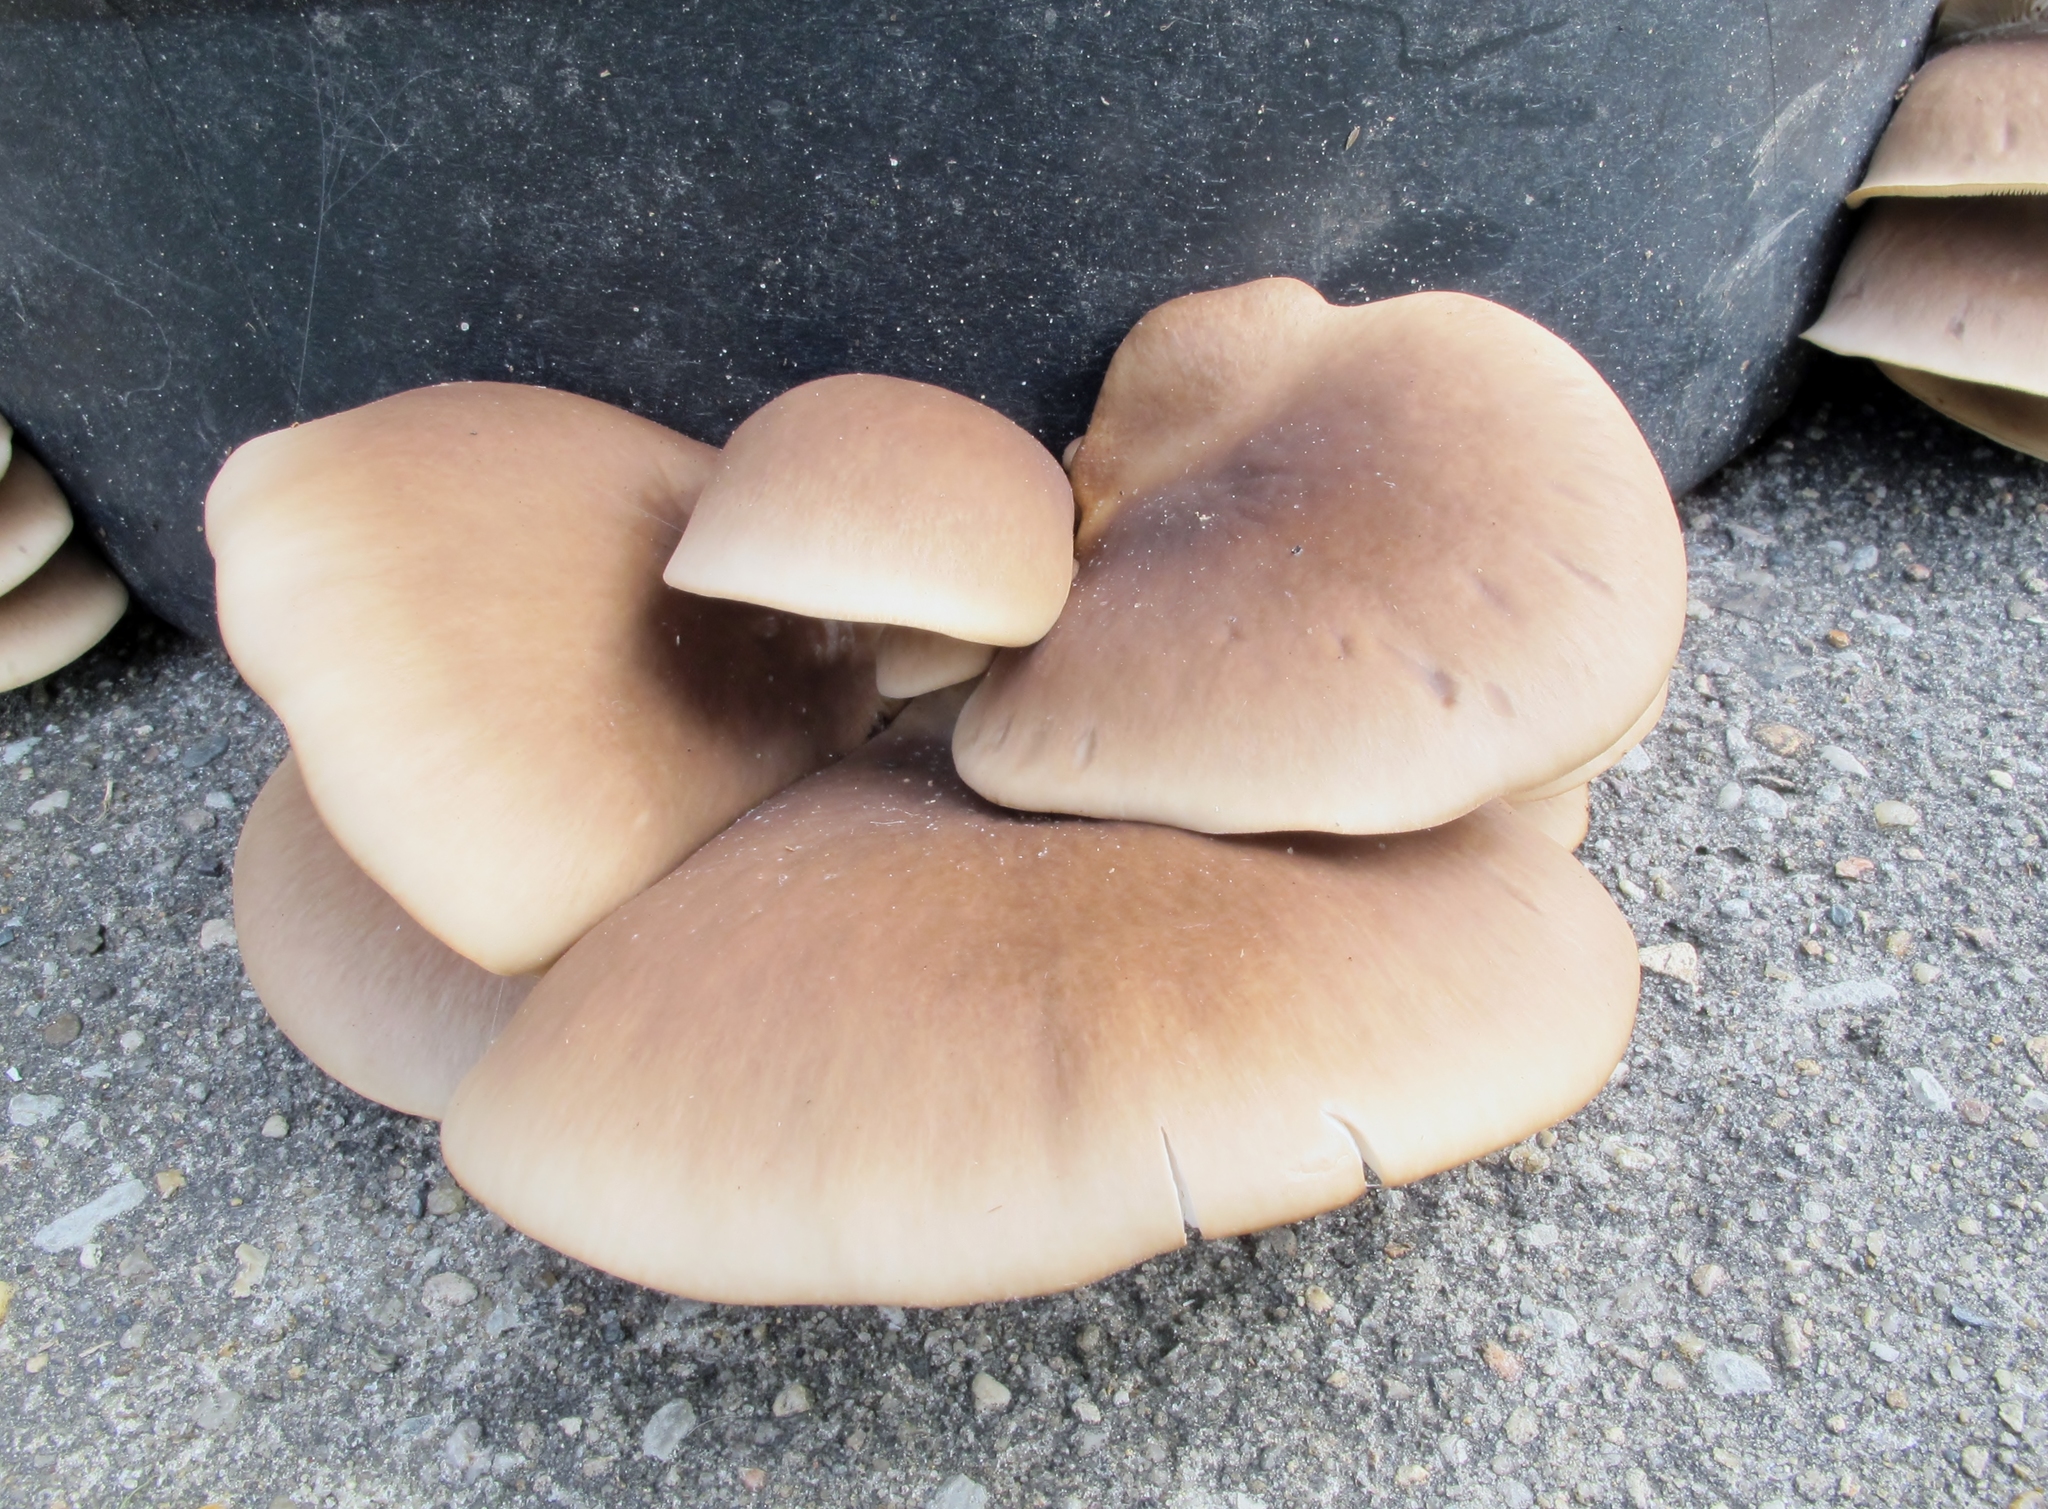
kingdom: Fungi
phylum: Basidiomycota
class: Agaricomycetes
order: Agaricales
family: Pleurotaceae
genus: Pleurotus
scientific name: Pleurotus ostreatus
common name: Oyster mushroom
